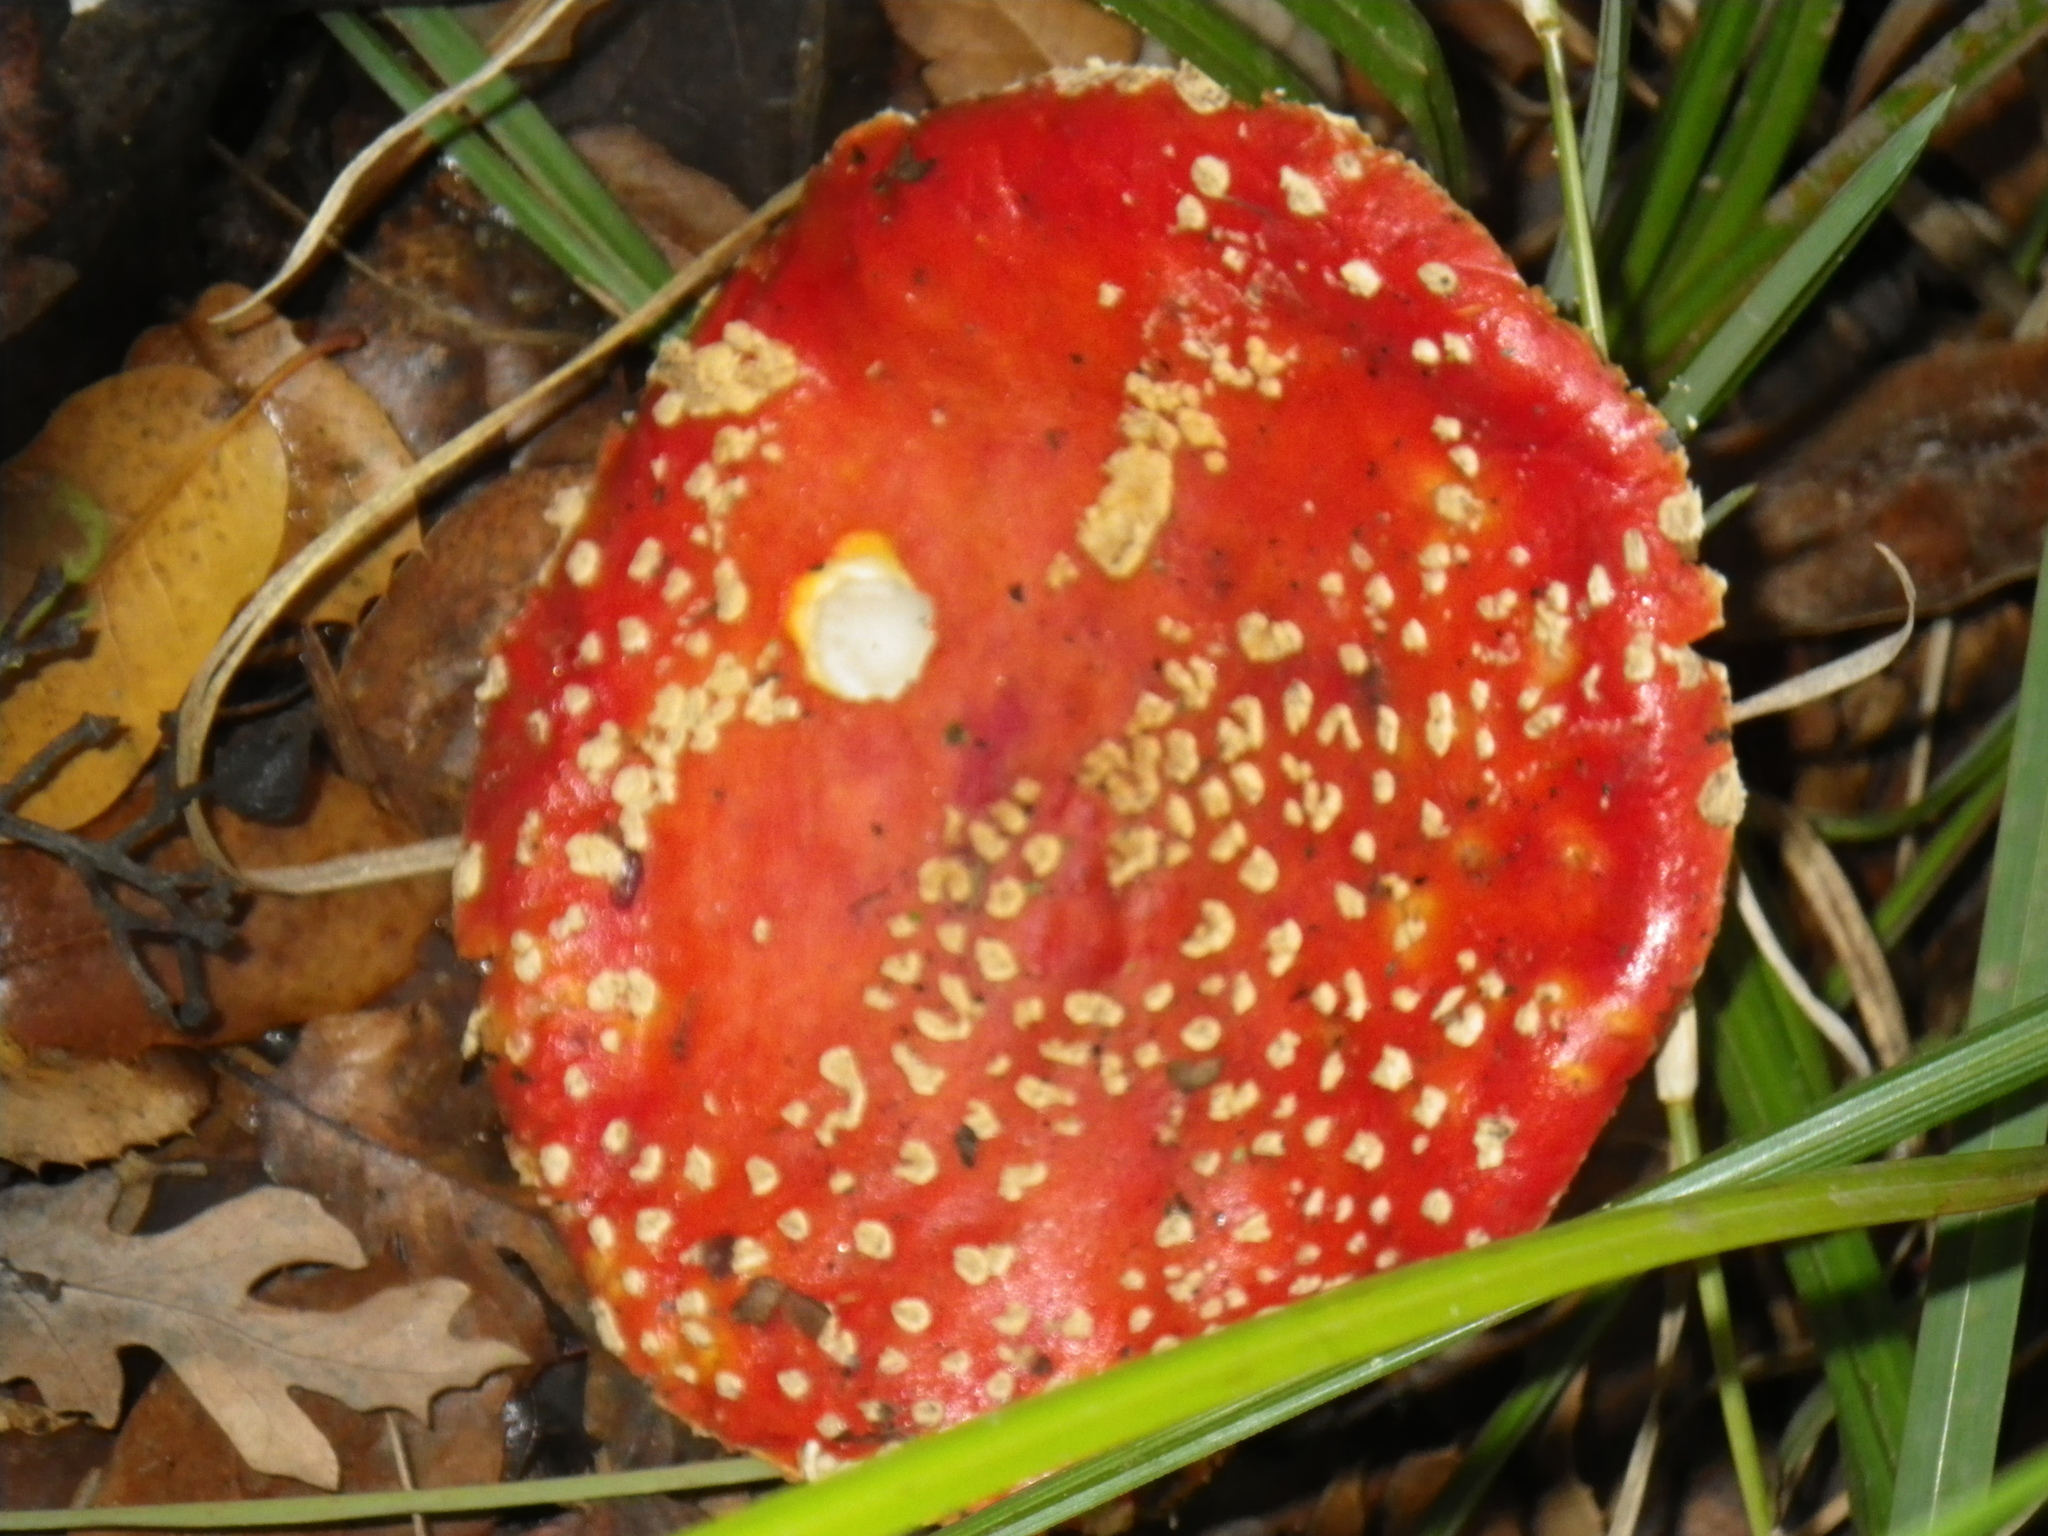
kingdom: Fungi
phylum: Basidiomycota
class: Agaricomycetes
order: Agaricales
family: Amanitaceae
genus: Amanita
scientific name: Amanita muscaria
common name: Fly agaric
